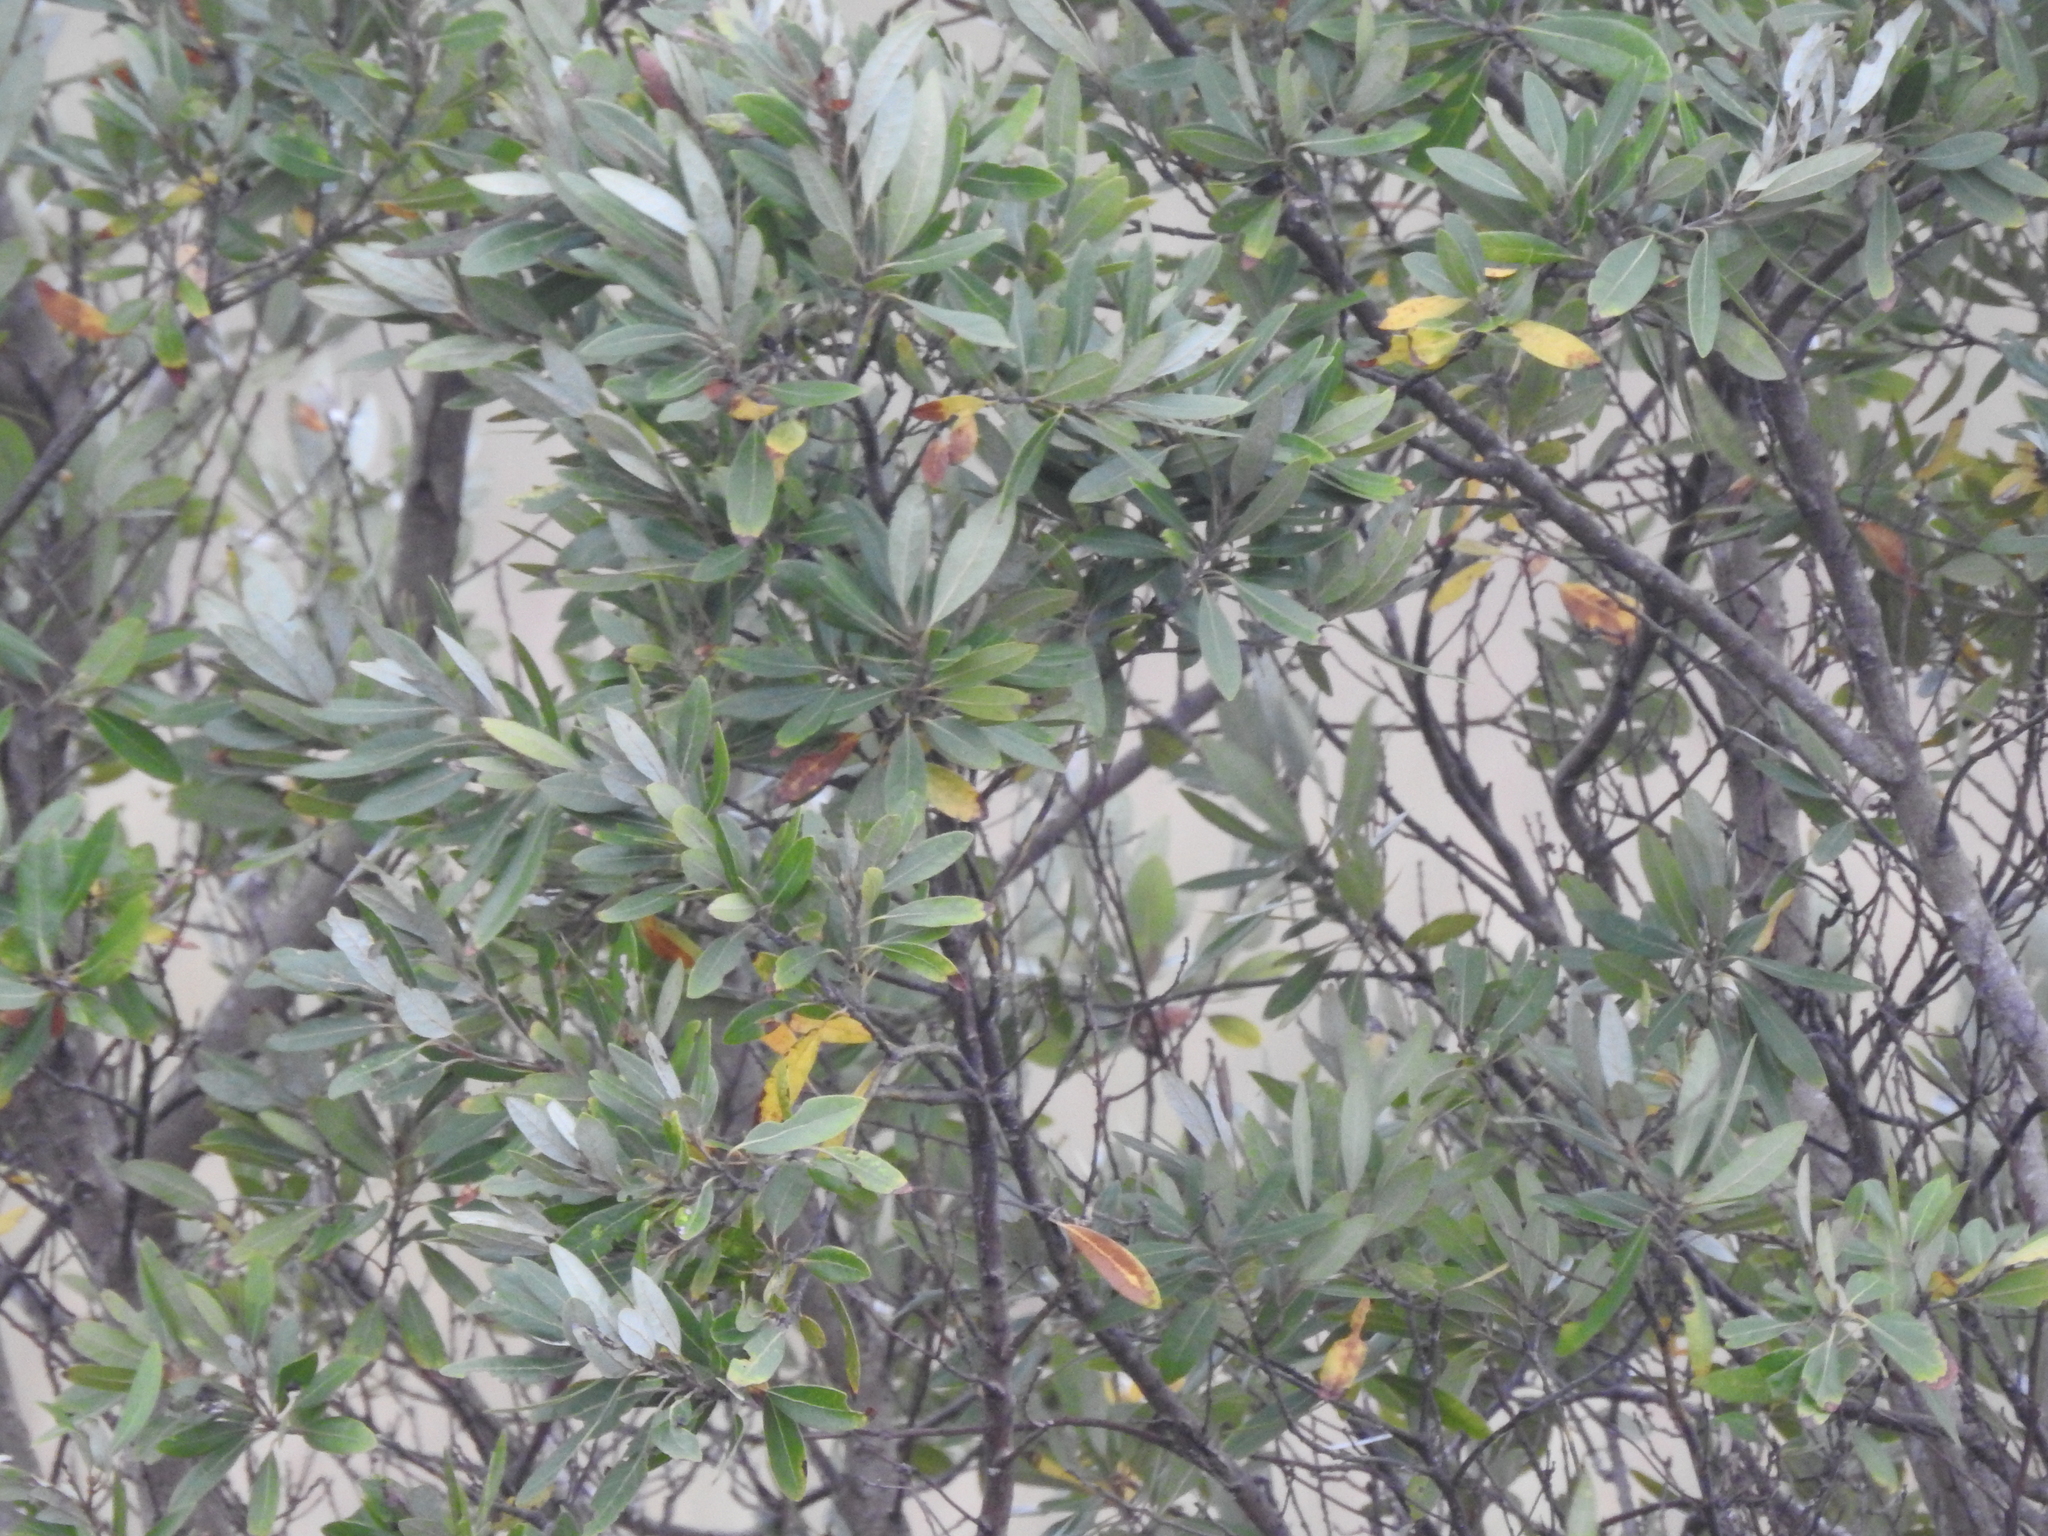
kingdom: Plantae
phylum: Tracheophyta
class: Magnoliopsida
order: Laurales
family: Lauraceae
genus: Persea
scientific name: Persea palustris
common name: Swampbay
